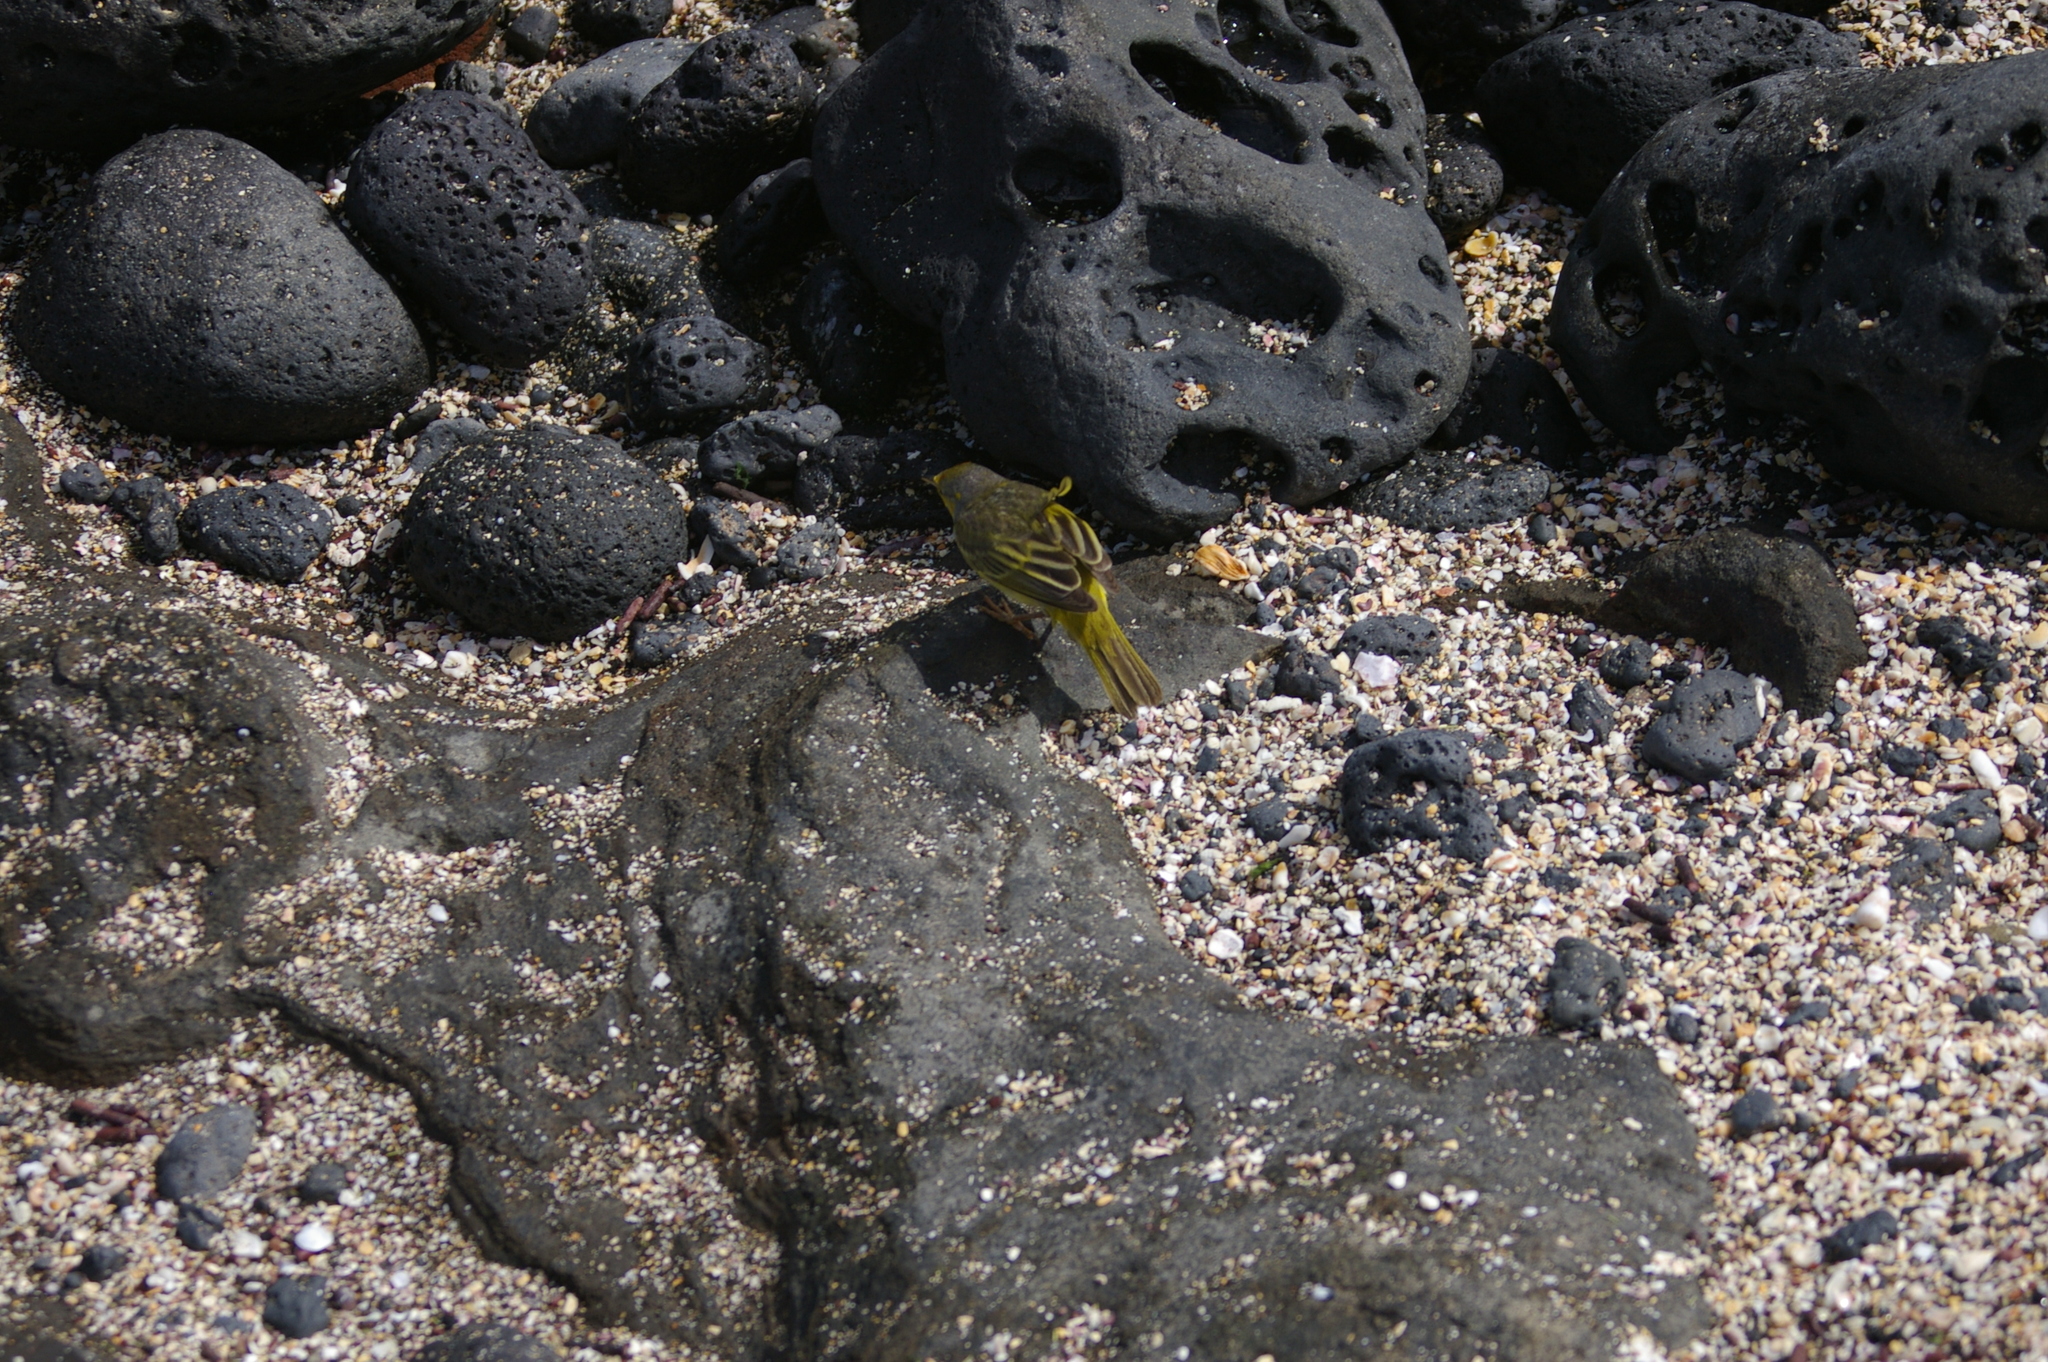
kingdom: Animalia
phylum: Chordata
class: Aves
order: Passeriformes
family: Parulidae
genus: Setophaga
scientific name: Setophaga petechia
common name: Yellow warbler
